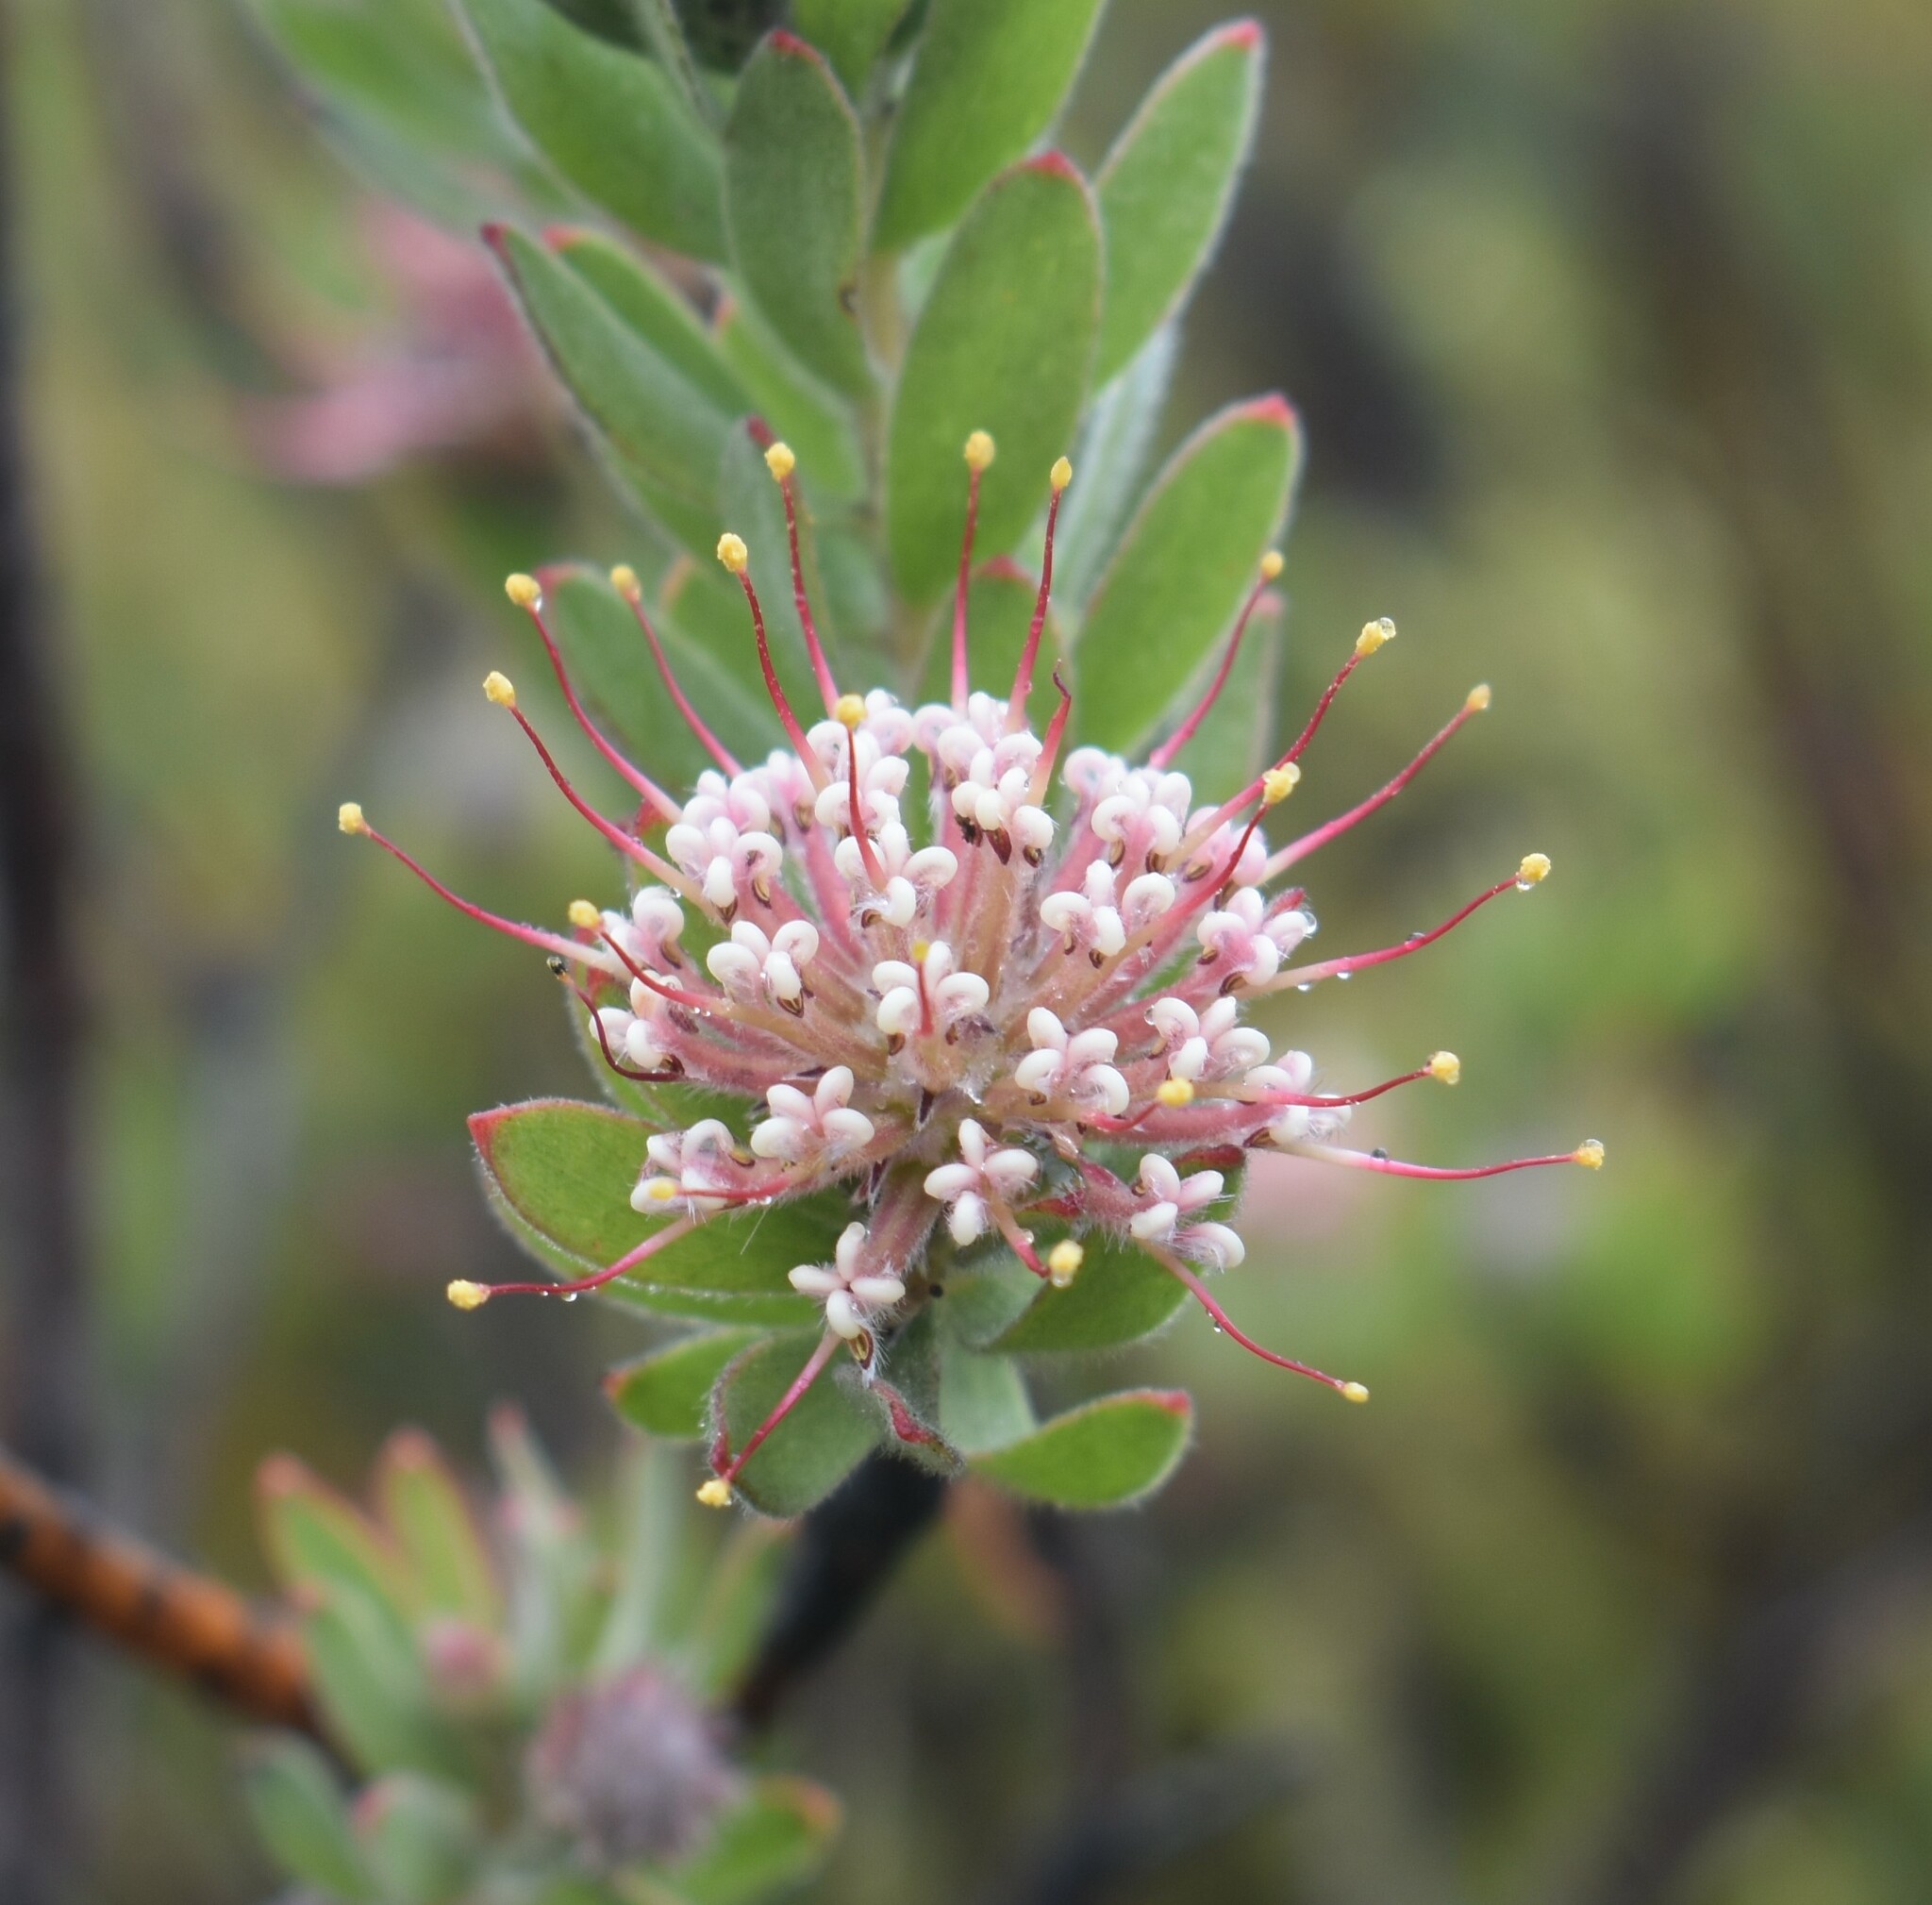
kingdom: Plantae
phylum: Tracheophyta
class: Magnoliopsida
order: Proteales
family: Proteaceae
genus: Leucospermum
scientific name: Leucospermum wittebergense
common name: Swartberg pincushion
